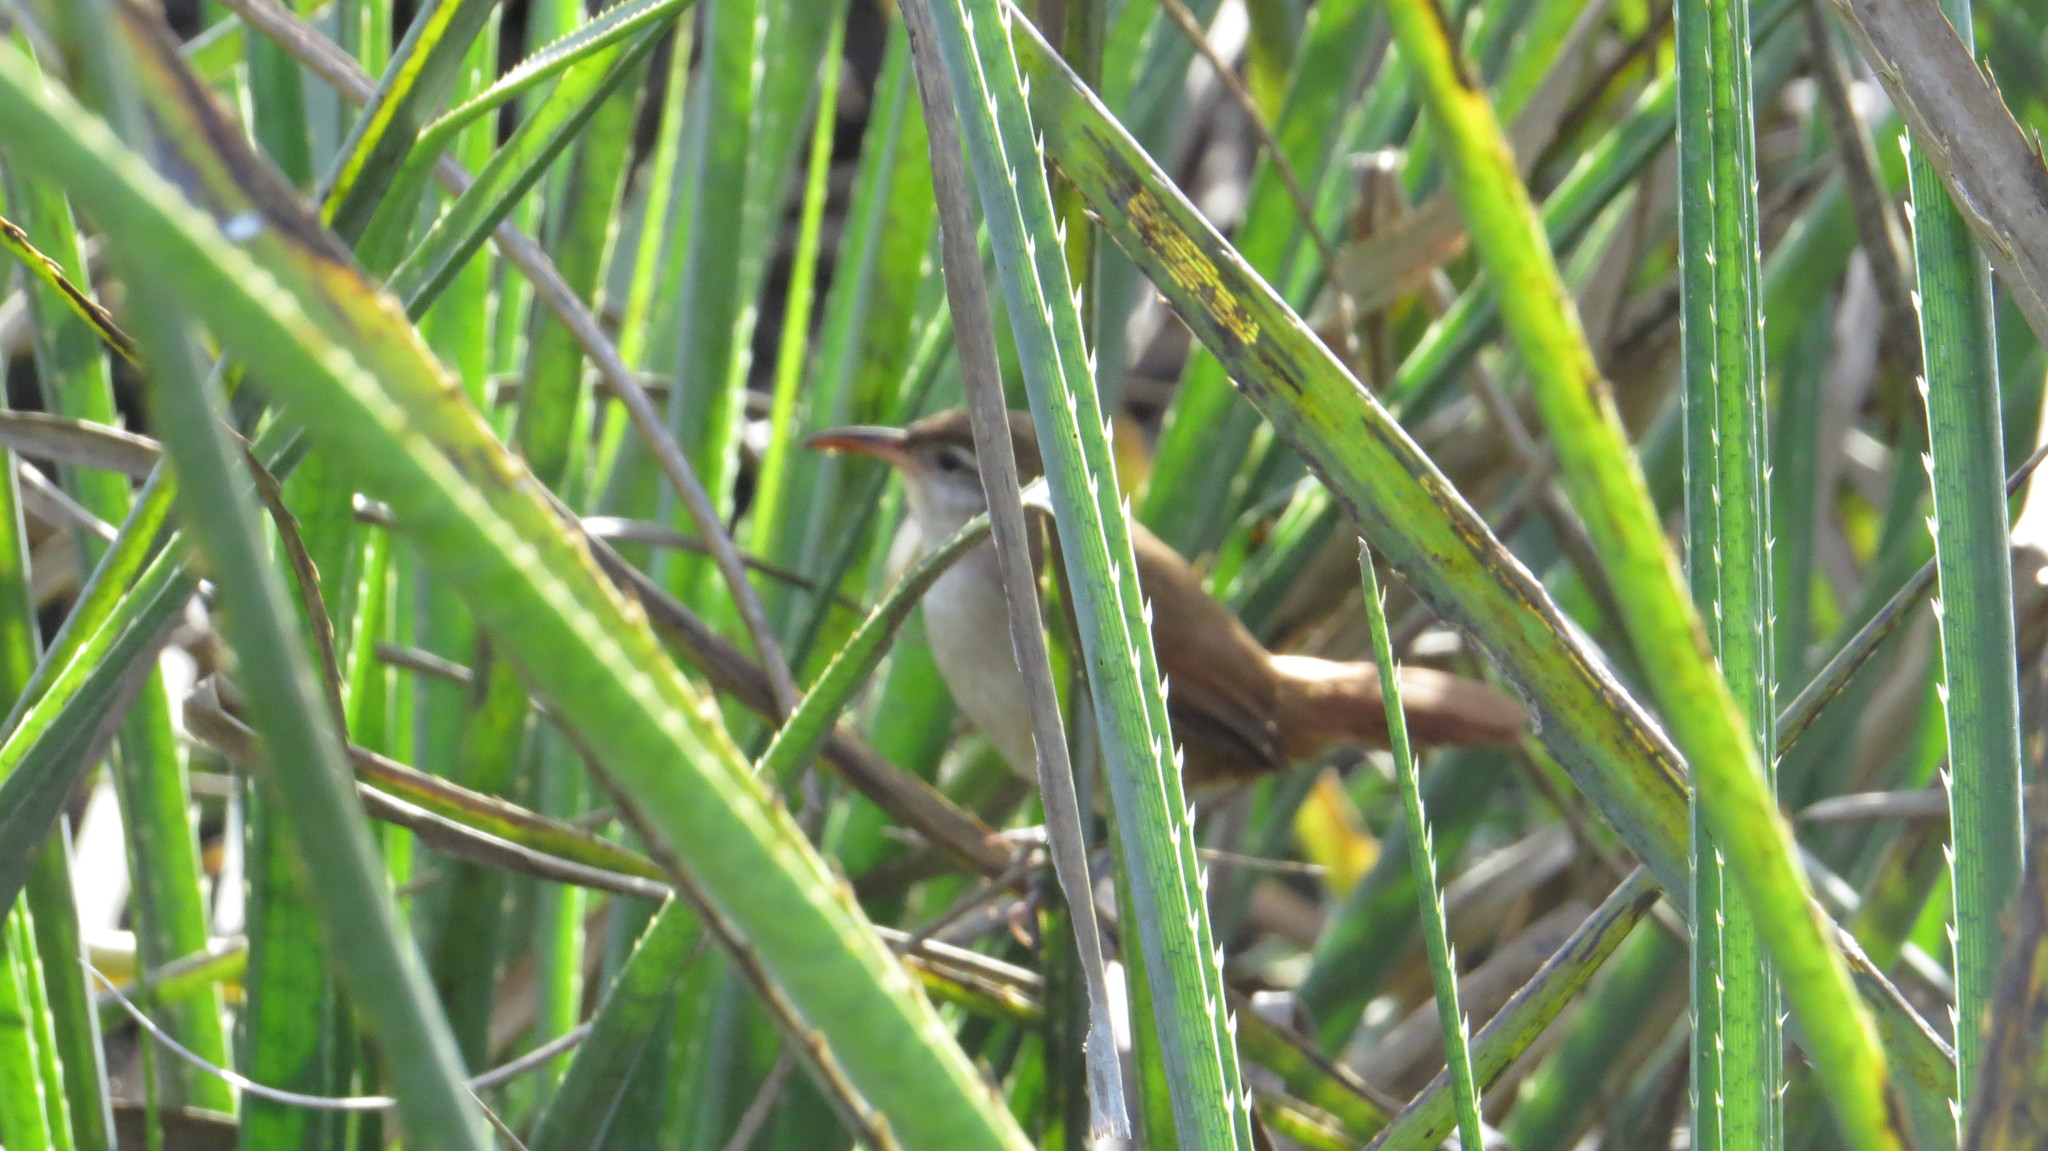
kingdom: Animalia
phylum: Chordata
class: Aves
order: Passeriformes
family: Furnariidae
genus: Limnornis
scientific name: Limnornis curvirostris
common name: Curve-billed reedhaunter
